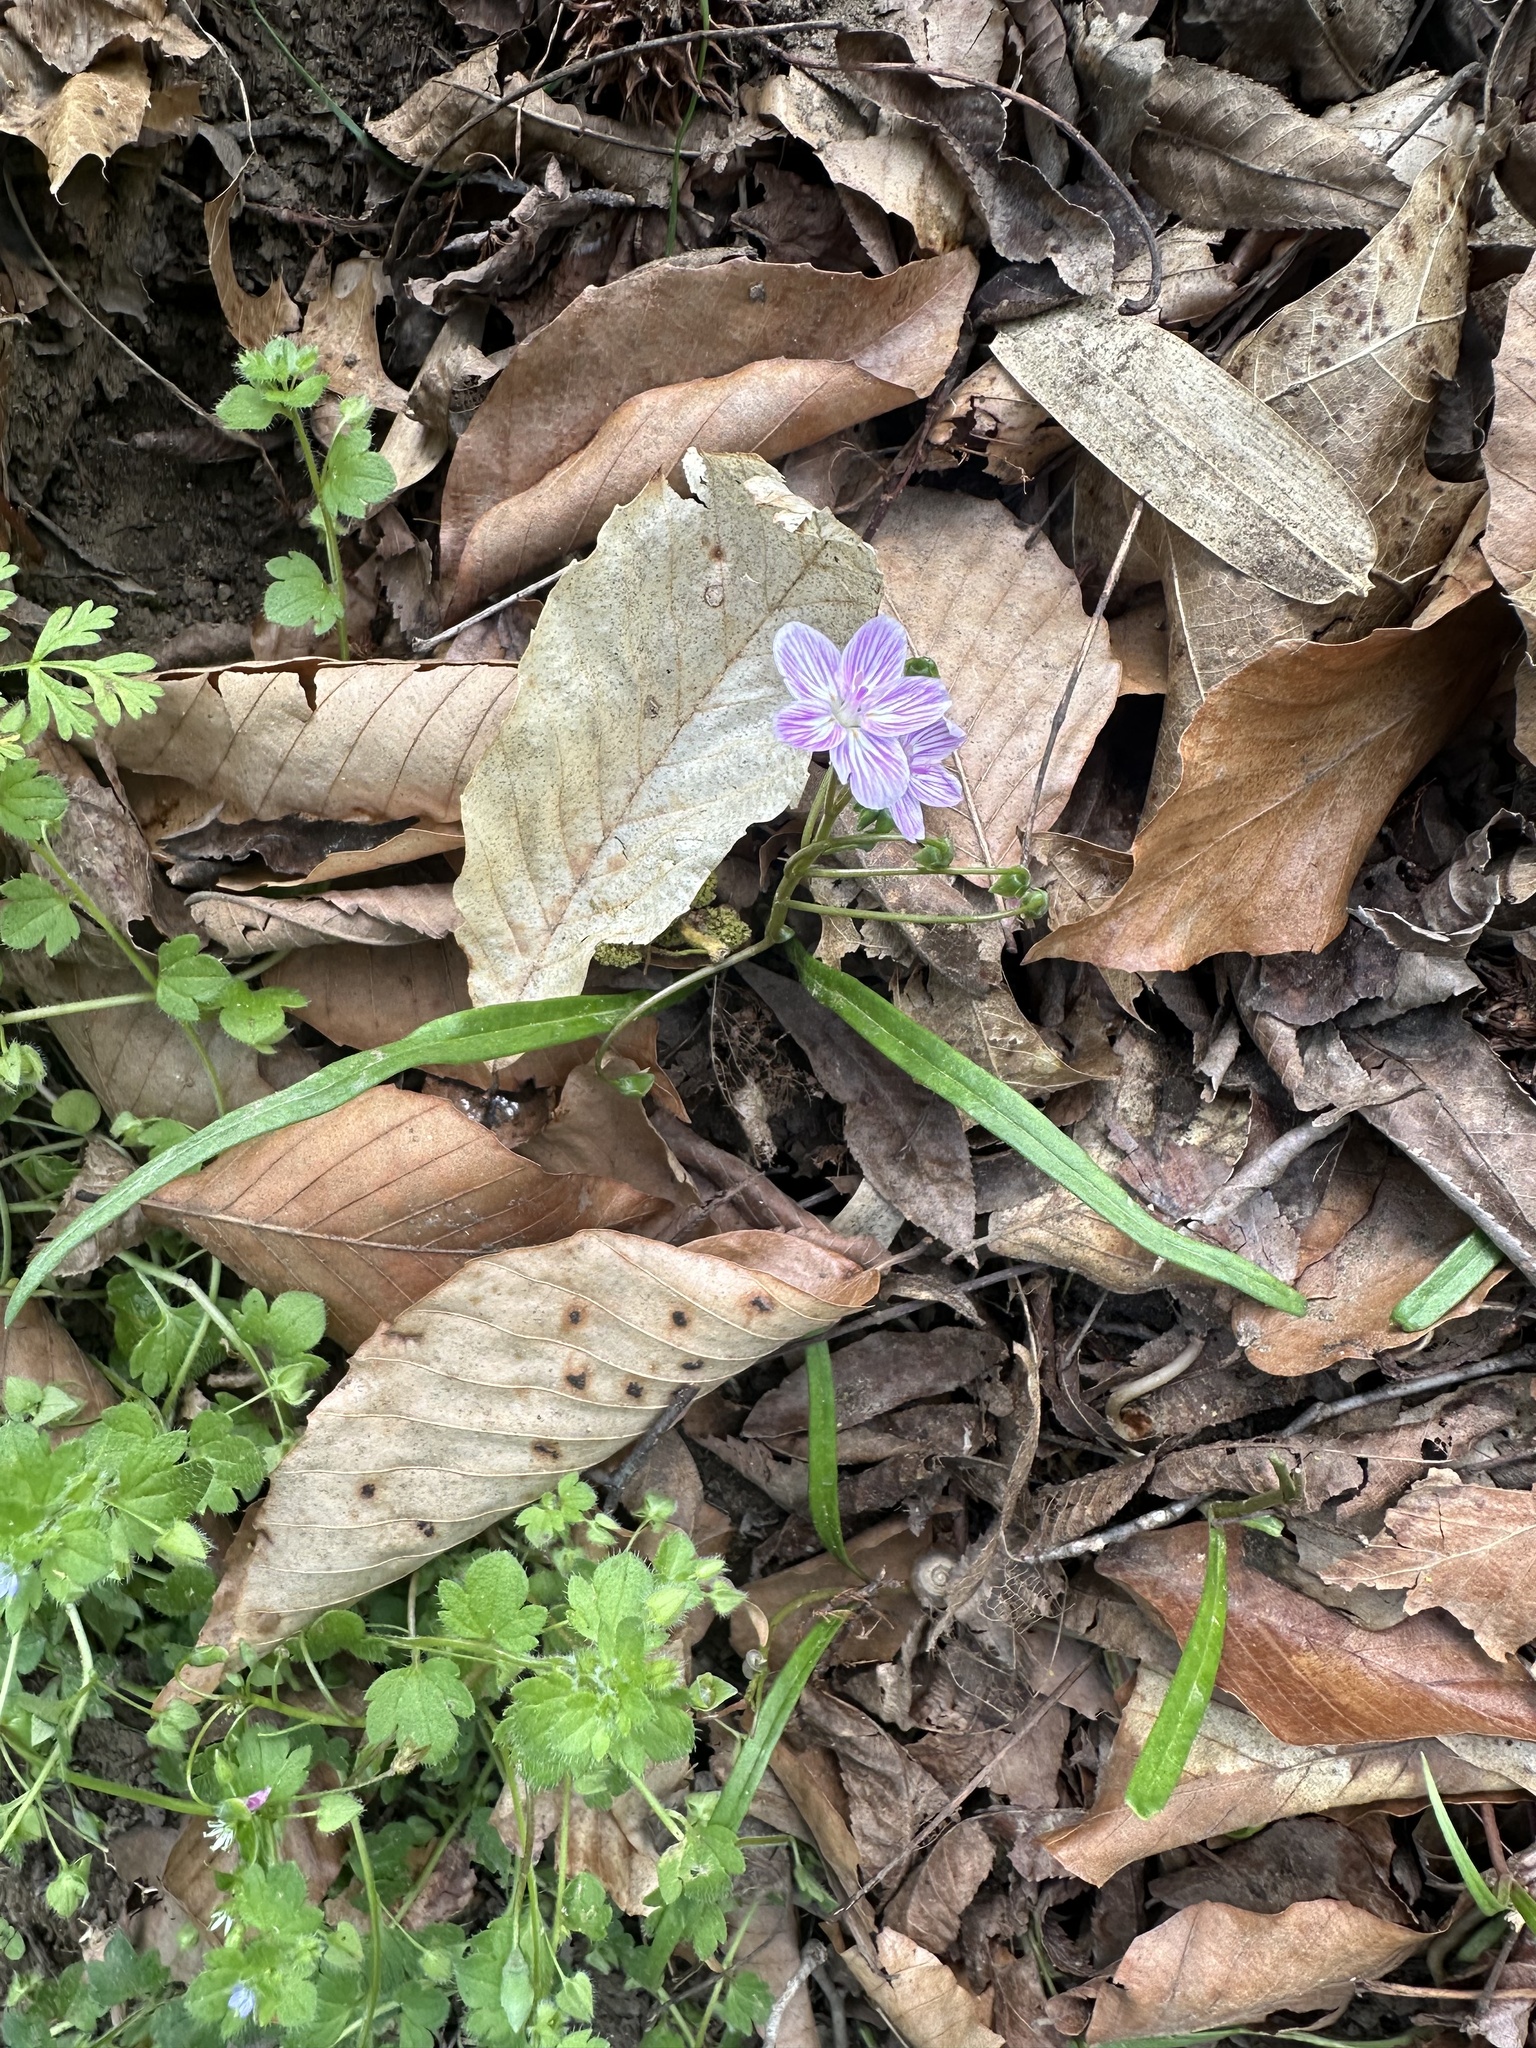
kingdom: Plantae
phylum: Tracheophyta
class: Magnoliopsida
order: Caryophyllales
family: Montiaceae
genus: Claytonia
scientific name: Claytonia virginica
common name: Virginia springbeauty
